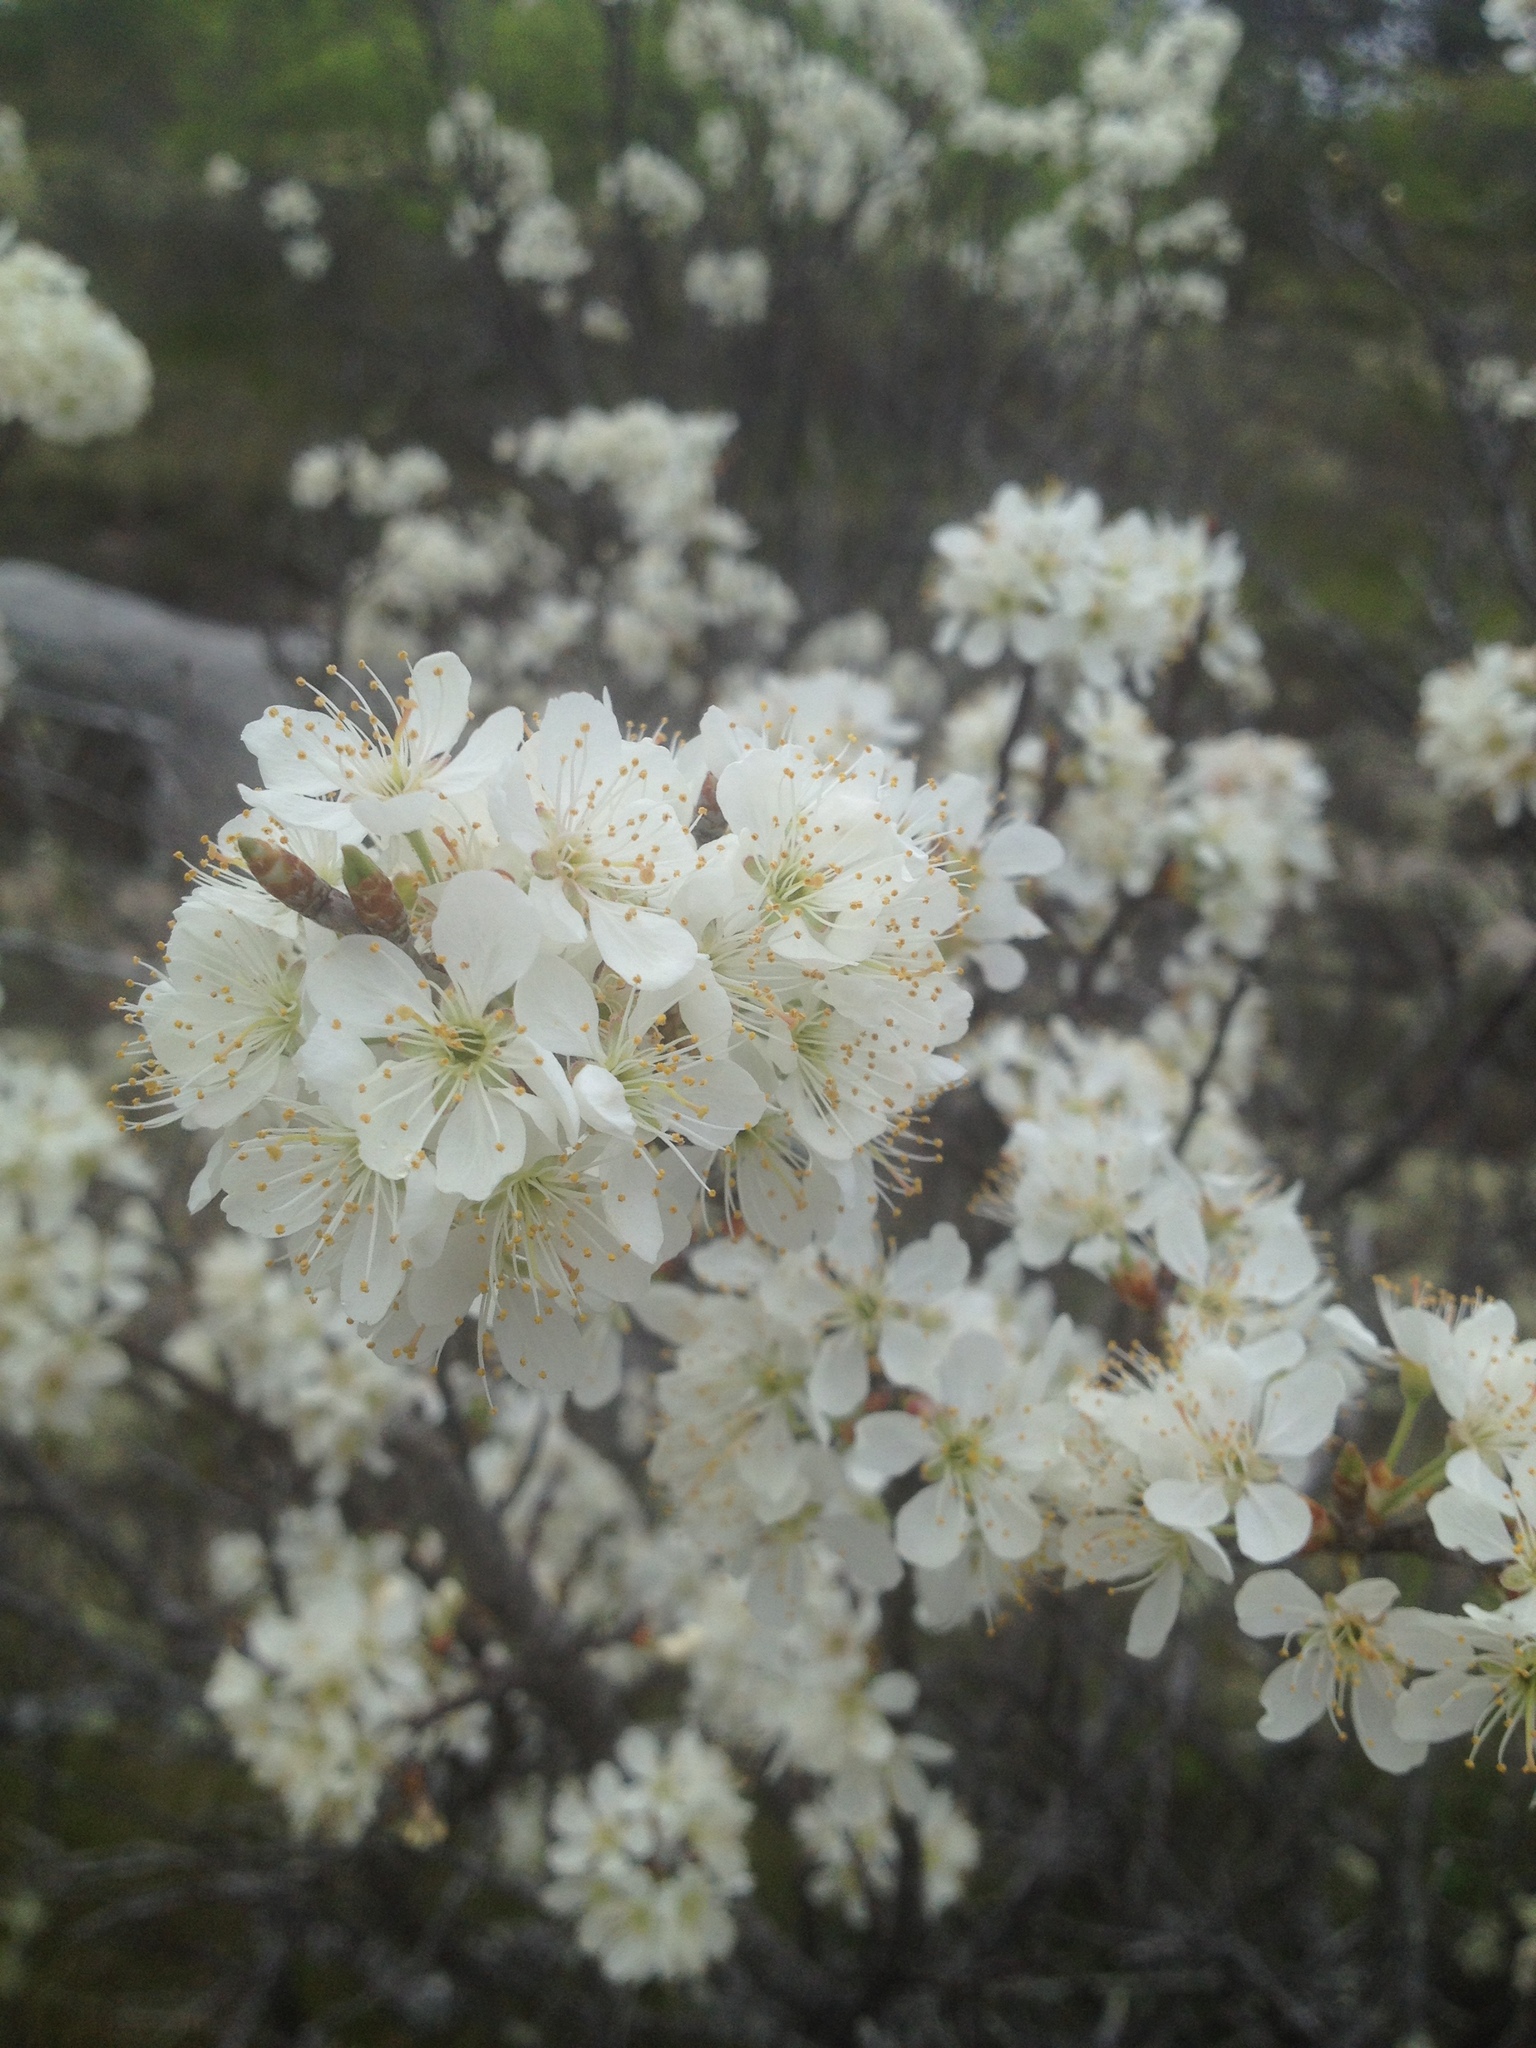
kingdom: Plantae
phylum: Tracheophyta
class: Magnoliopsida
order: Rosales
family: Rosaceae
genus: Prunus
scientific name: Prunus maritima
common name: Beach plum
